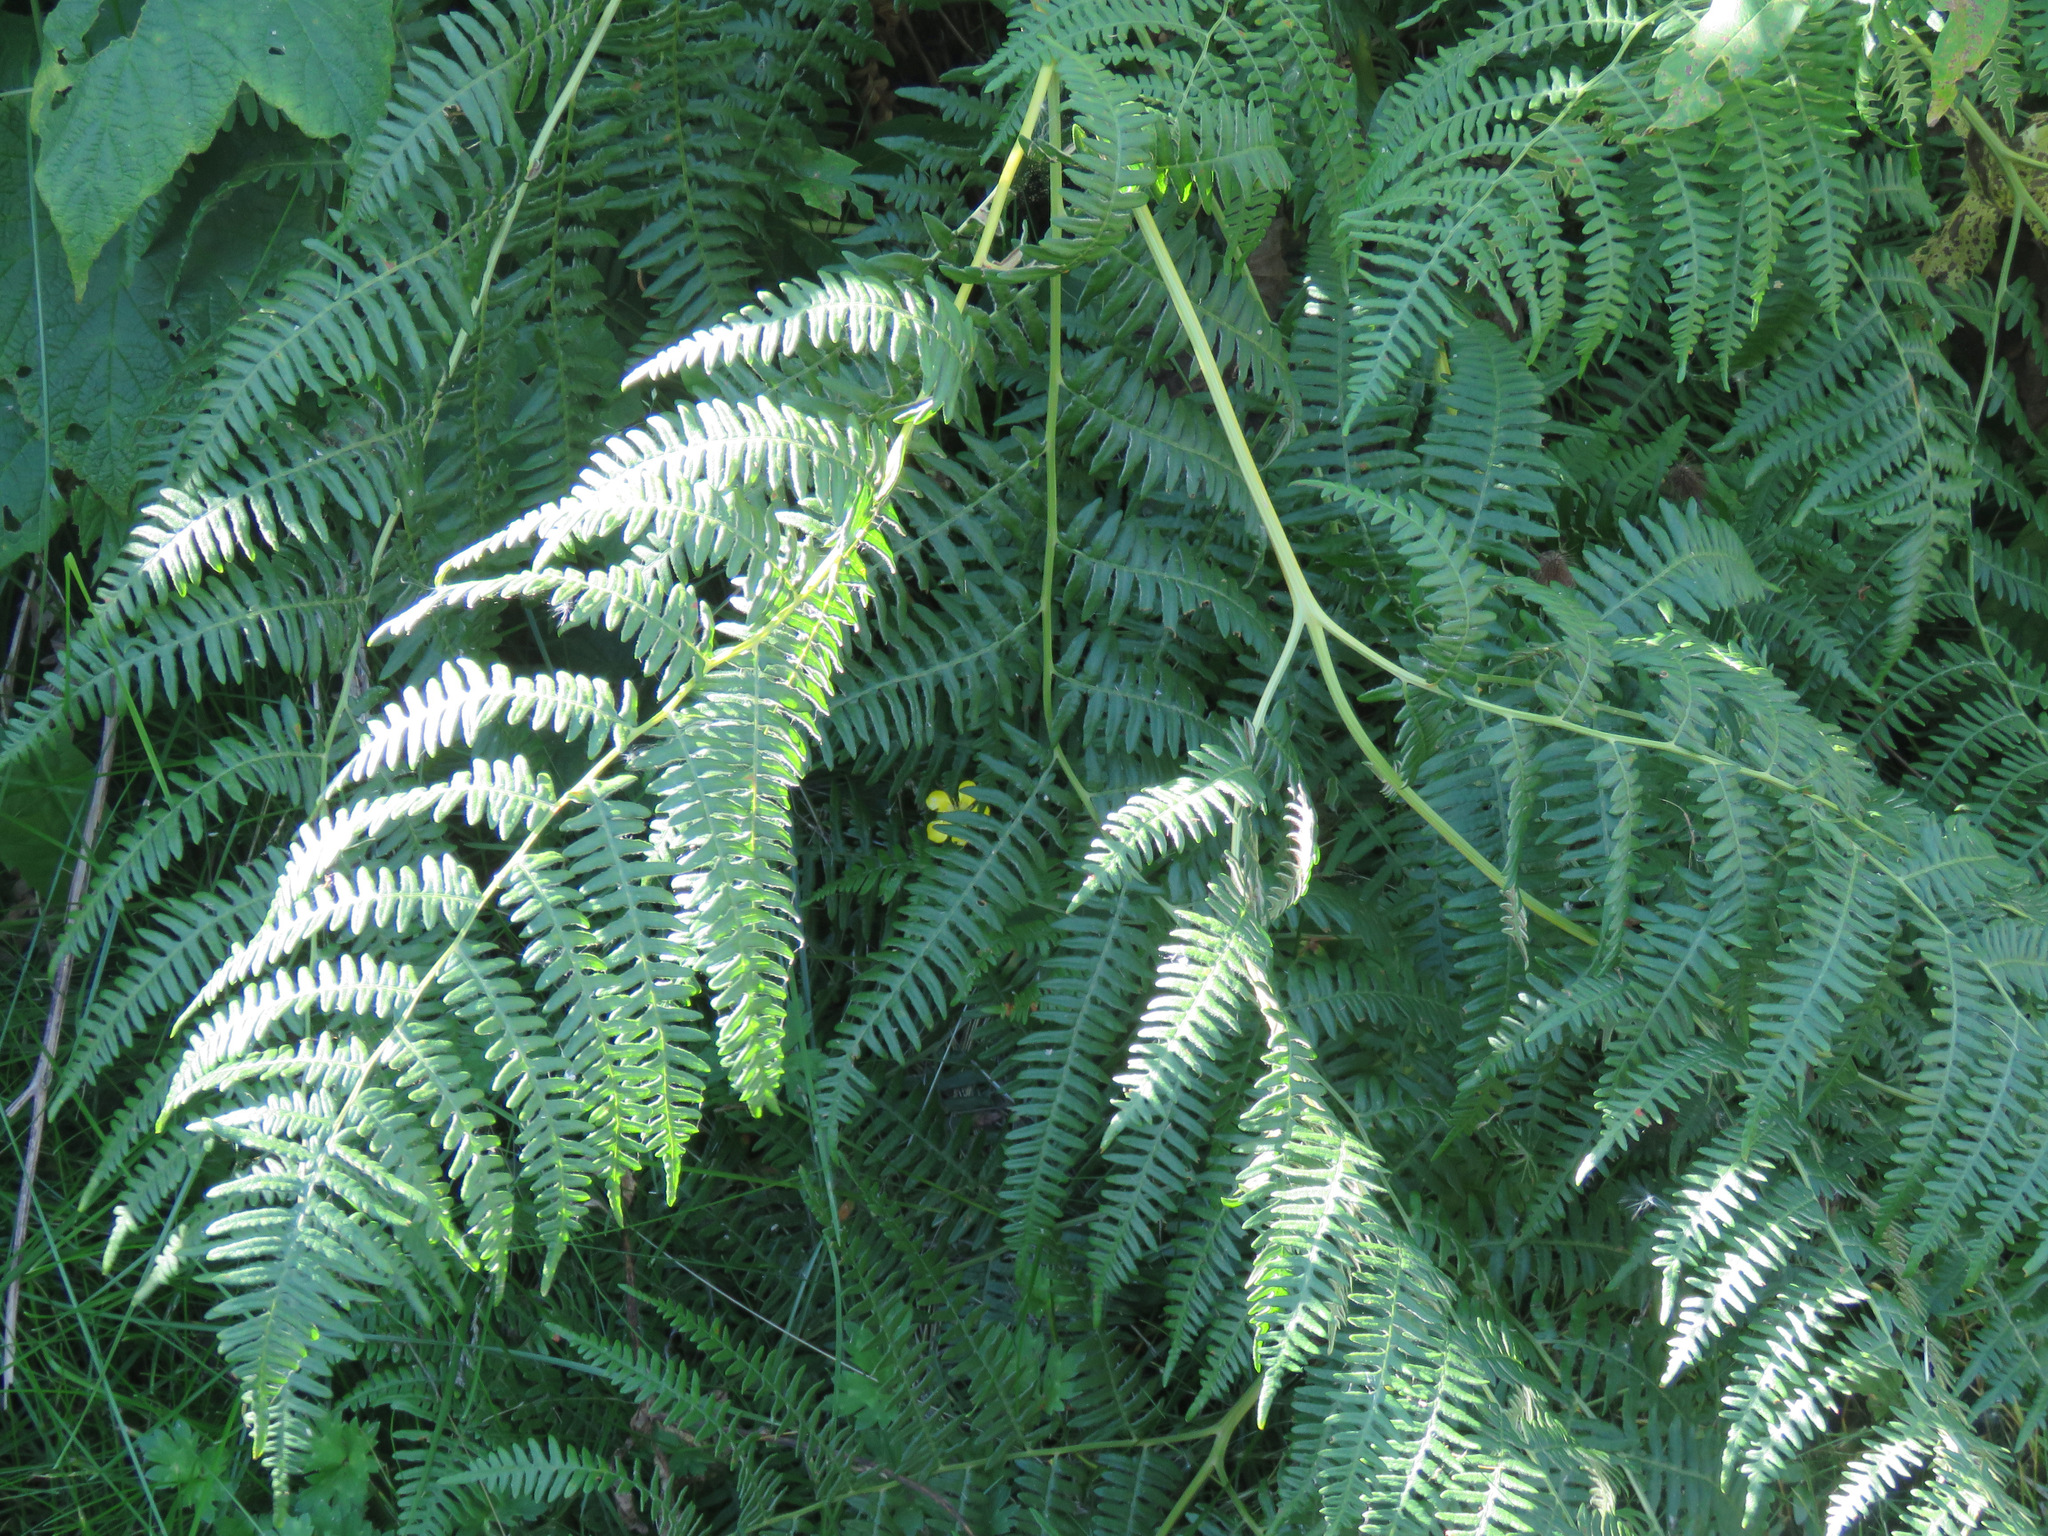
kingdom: Plantae
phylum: Tracheophyta
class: Polypodiopsida
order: Polypodiales
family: Dennstaedtiaceae
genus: Pteridium
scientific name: Pteridium aquilinum
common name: Bracken
